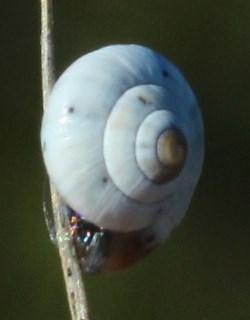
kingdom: Animalia
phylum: Mollusca
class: Gastropoda
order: Stylommatophora
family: Charopidae
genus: Xerocystis
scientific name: Xerocystis capensis
